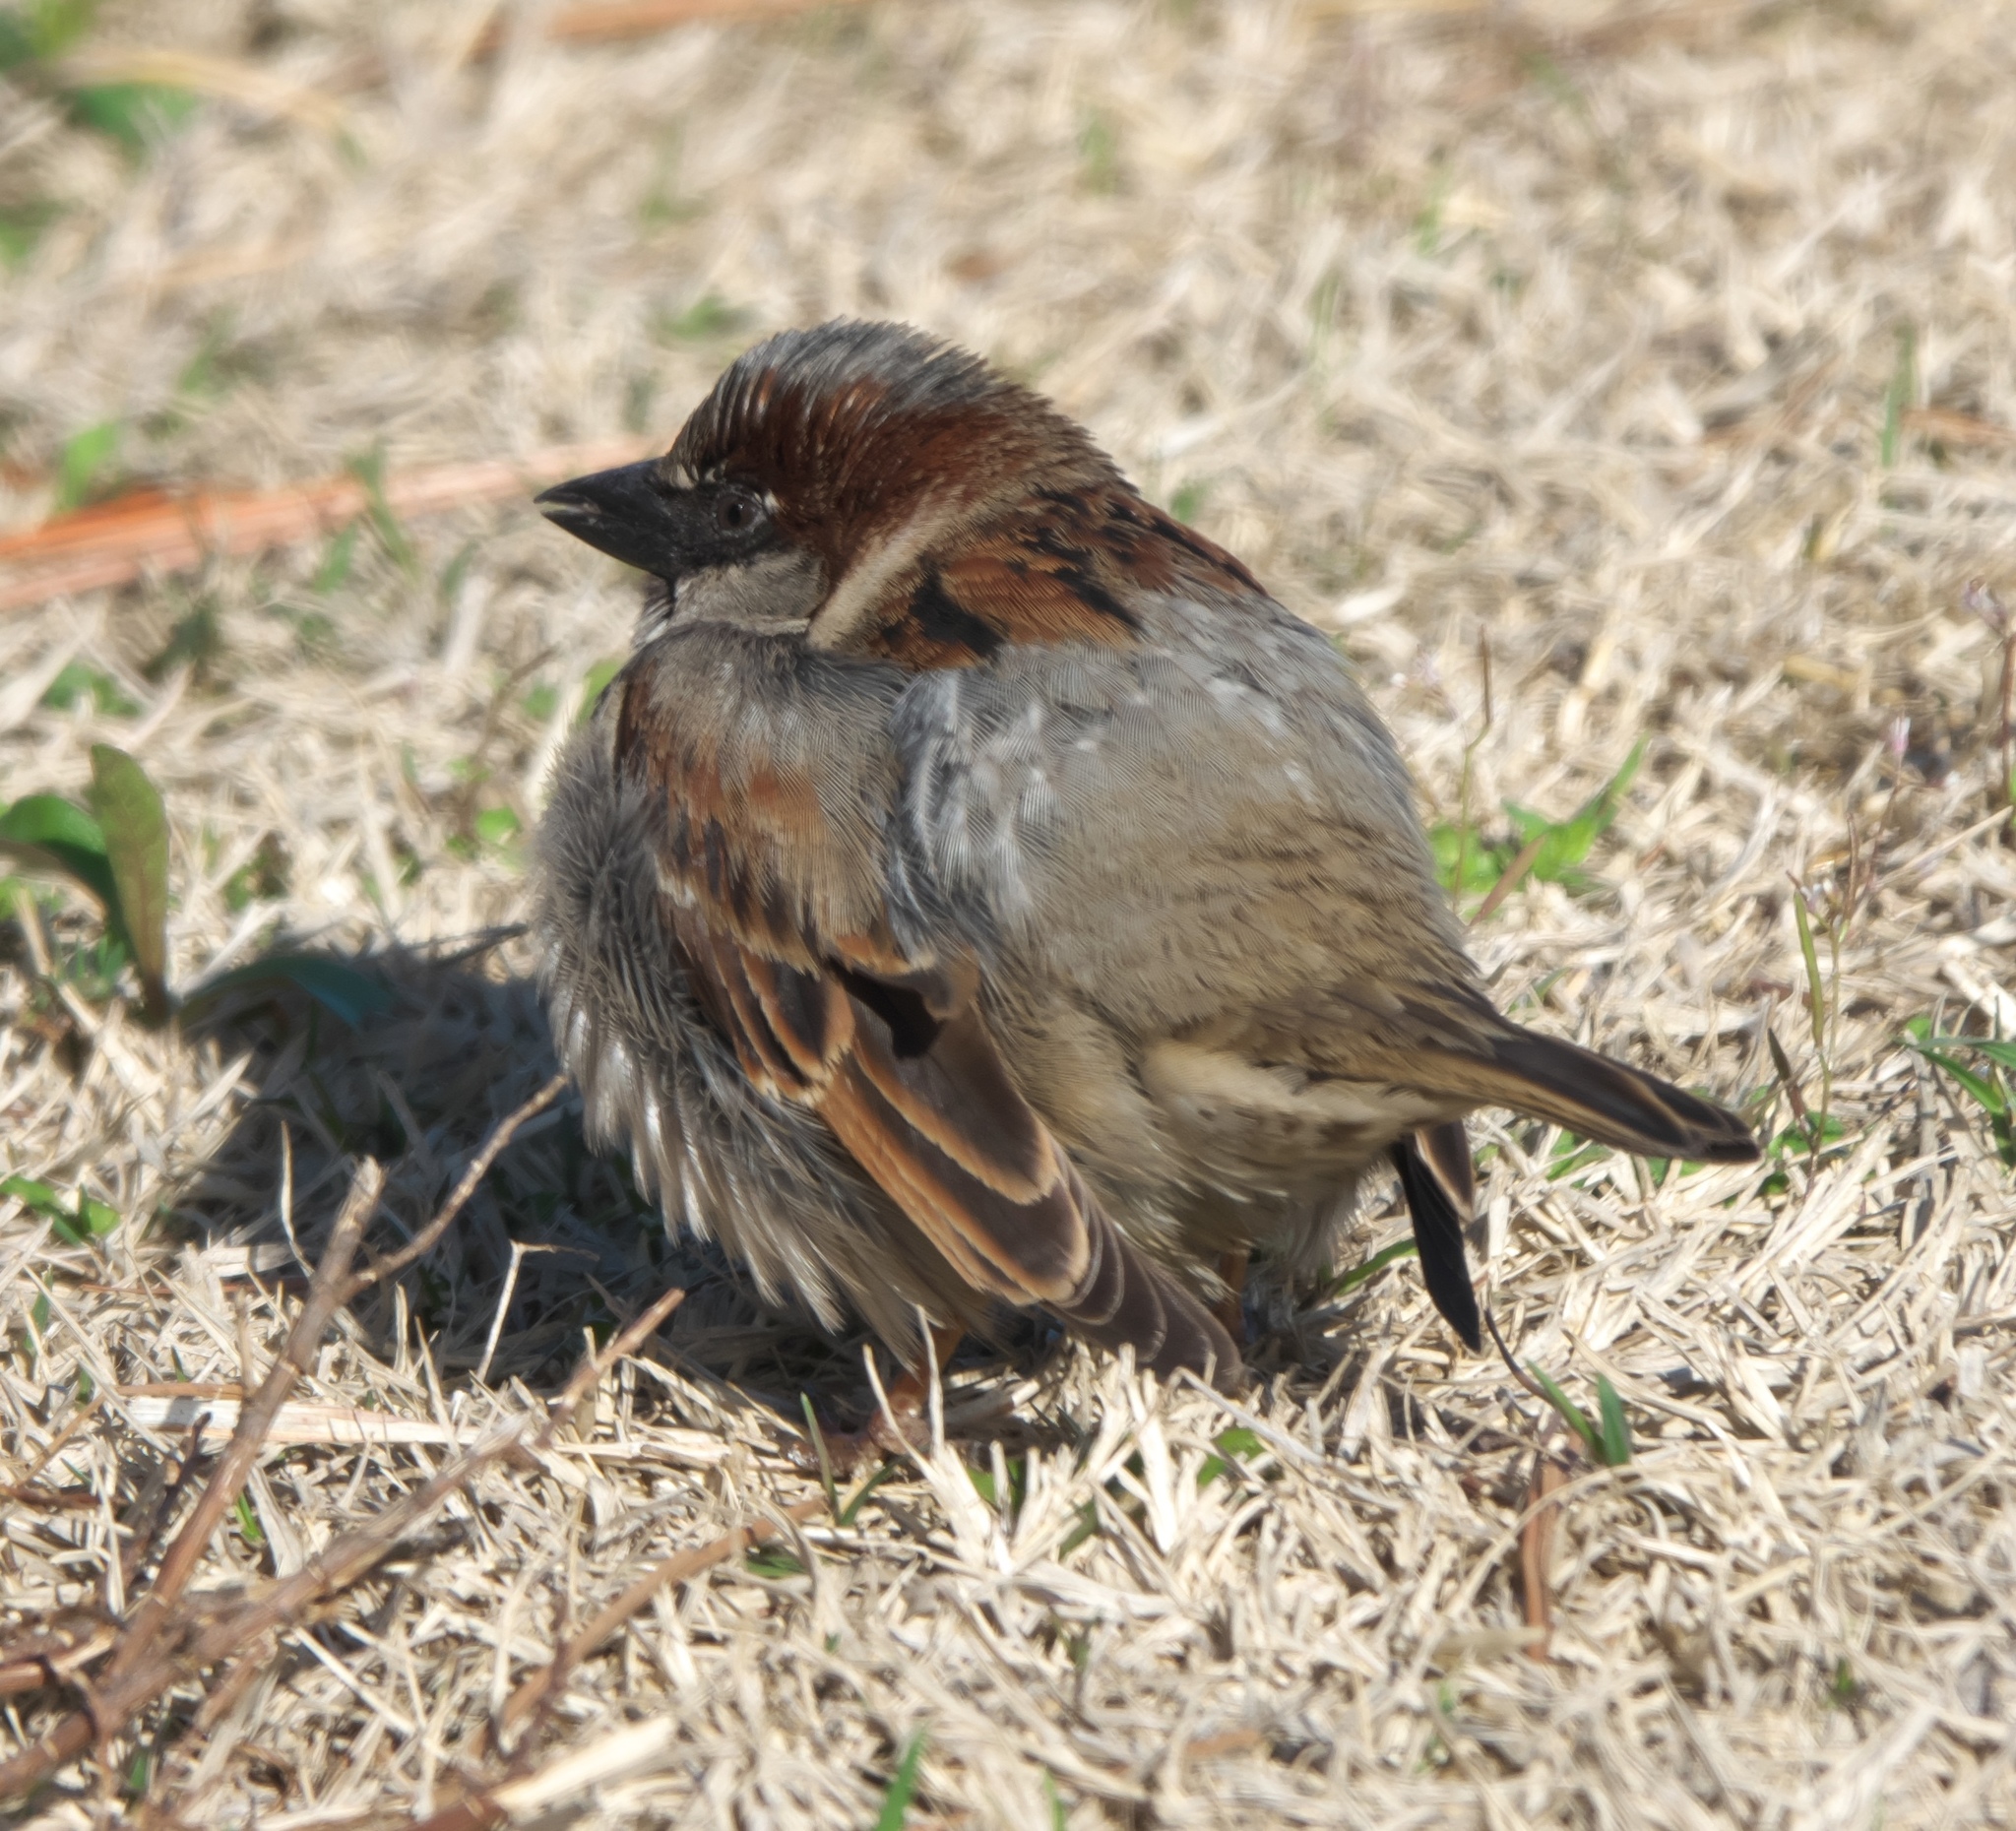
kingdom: Animalia
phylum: Chordata
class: Aves
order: Passeriformes
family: Passeridae
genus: Passer
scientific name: Passer domesticus
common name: House sparrow
